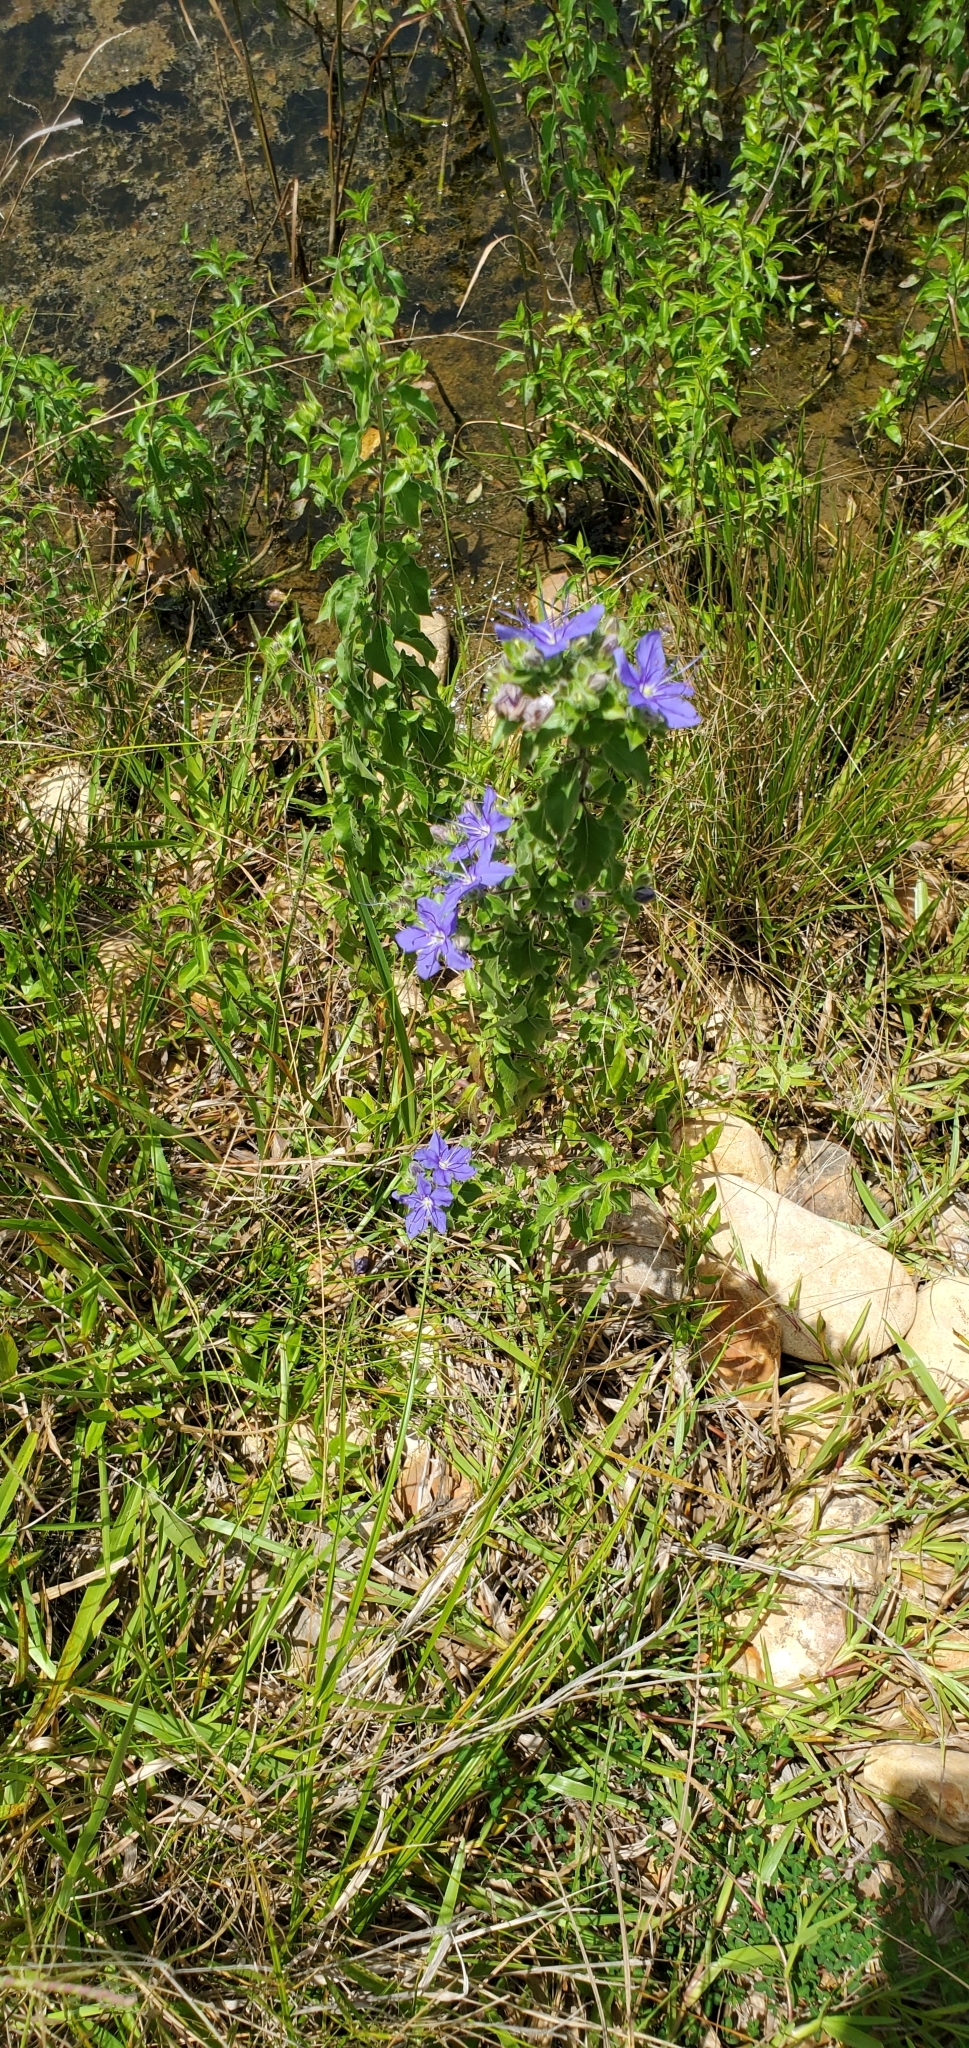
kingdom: Plantae
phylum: Tracheophyta
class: Magnoliopsida
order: Solanales
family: Hydroleaceae
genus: Hydrolea
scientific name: Hydrolea ovata
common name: Ovate false fiddleleaf
